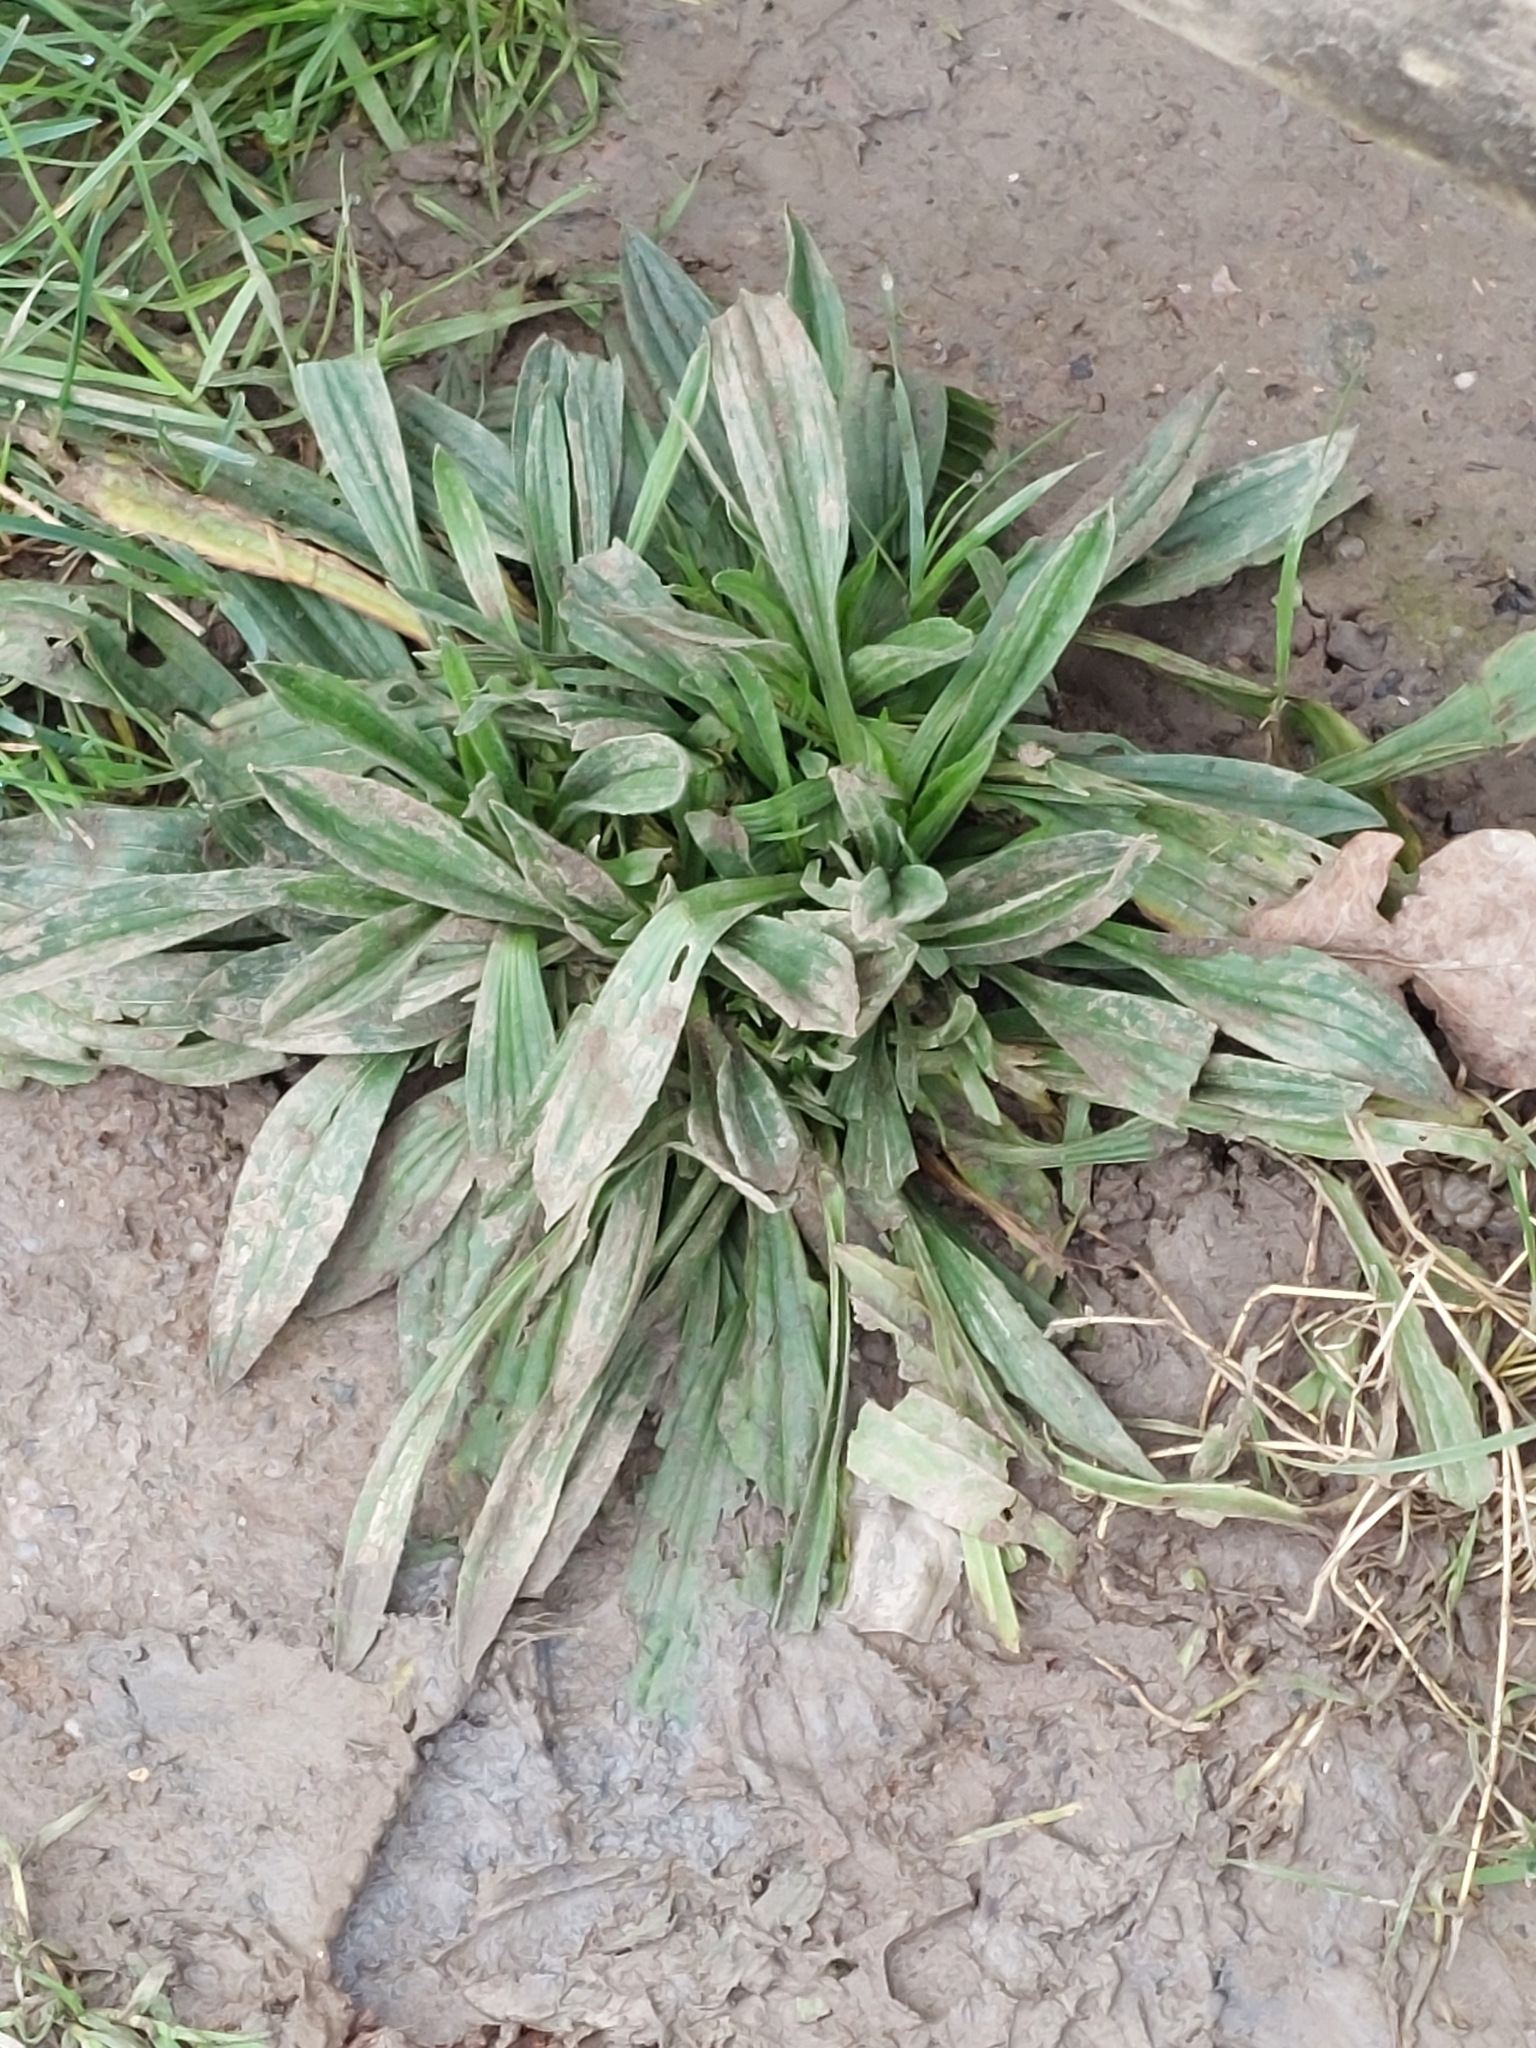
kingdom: Plantae
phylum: Tracheophyta
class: Magnoliopsida
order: Lamiales
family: Plantaginaceae
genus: Plantago
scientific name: Plantago lanceolata
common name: Ribwort plantain
